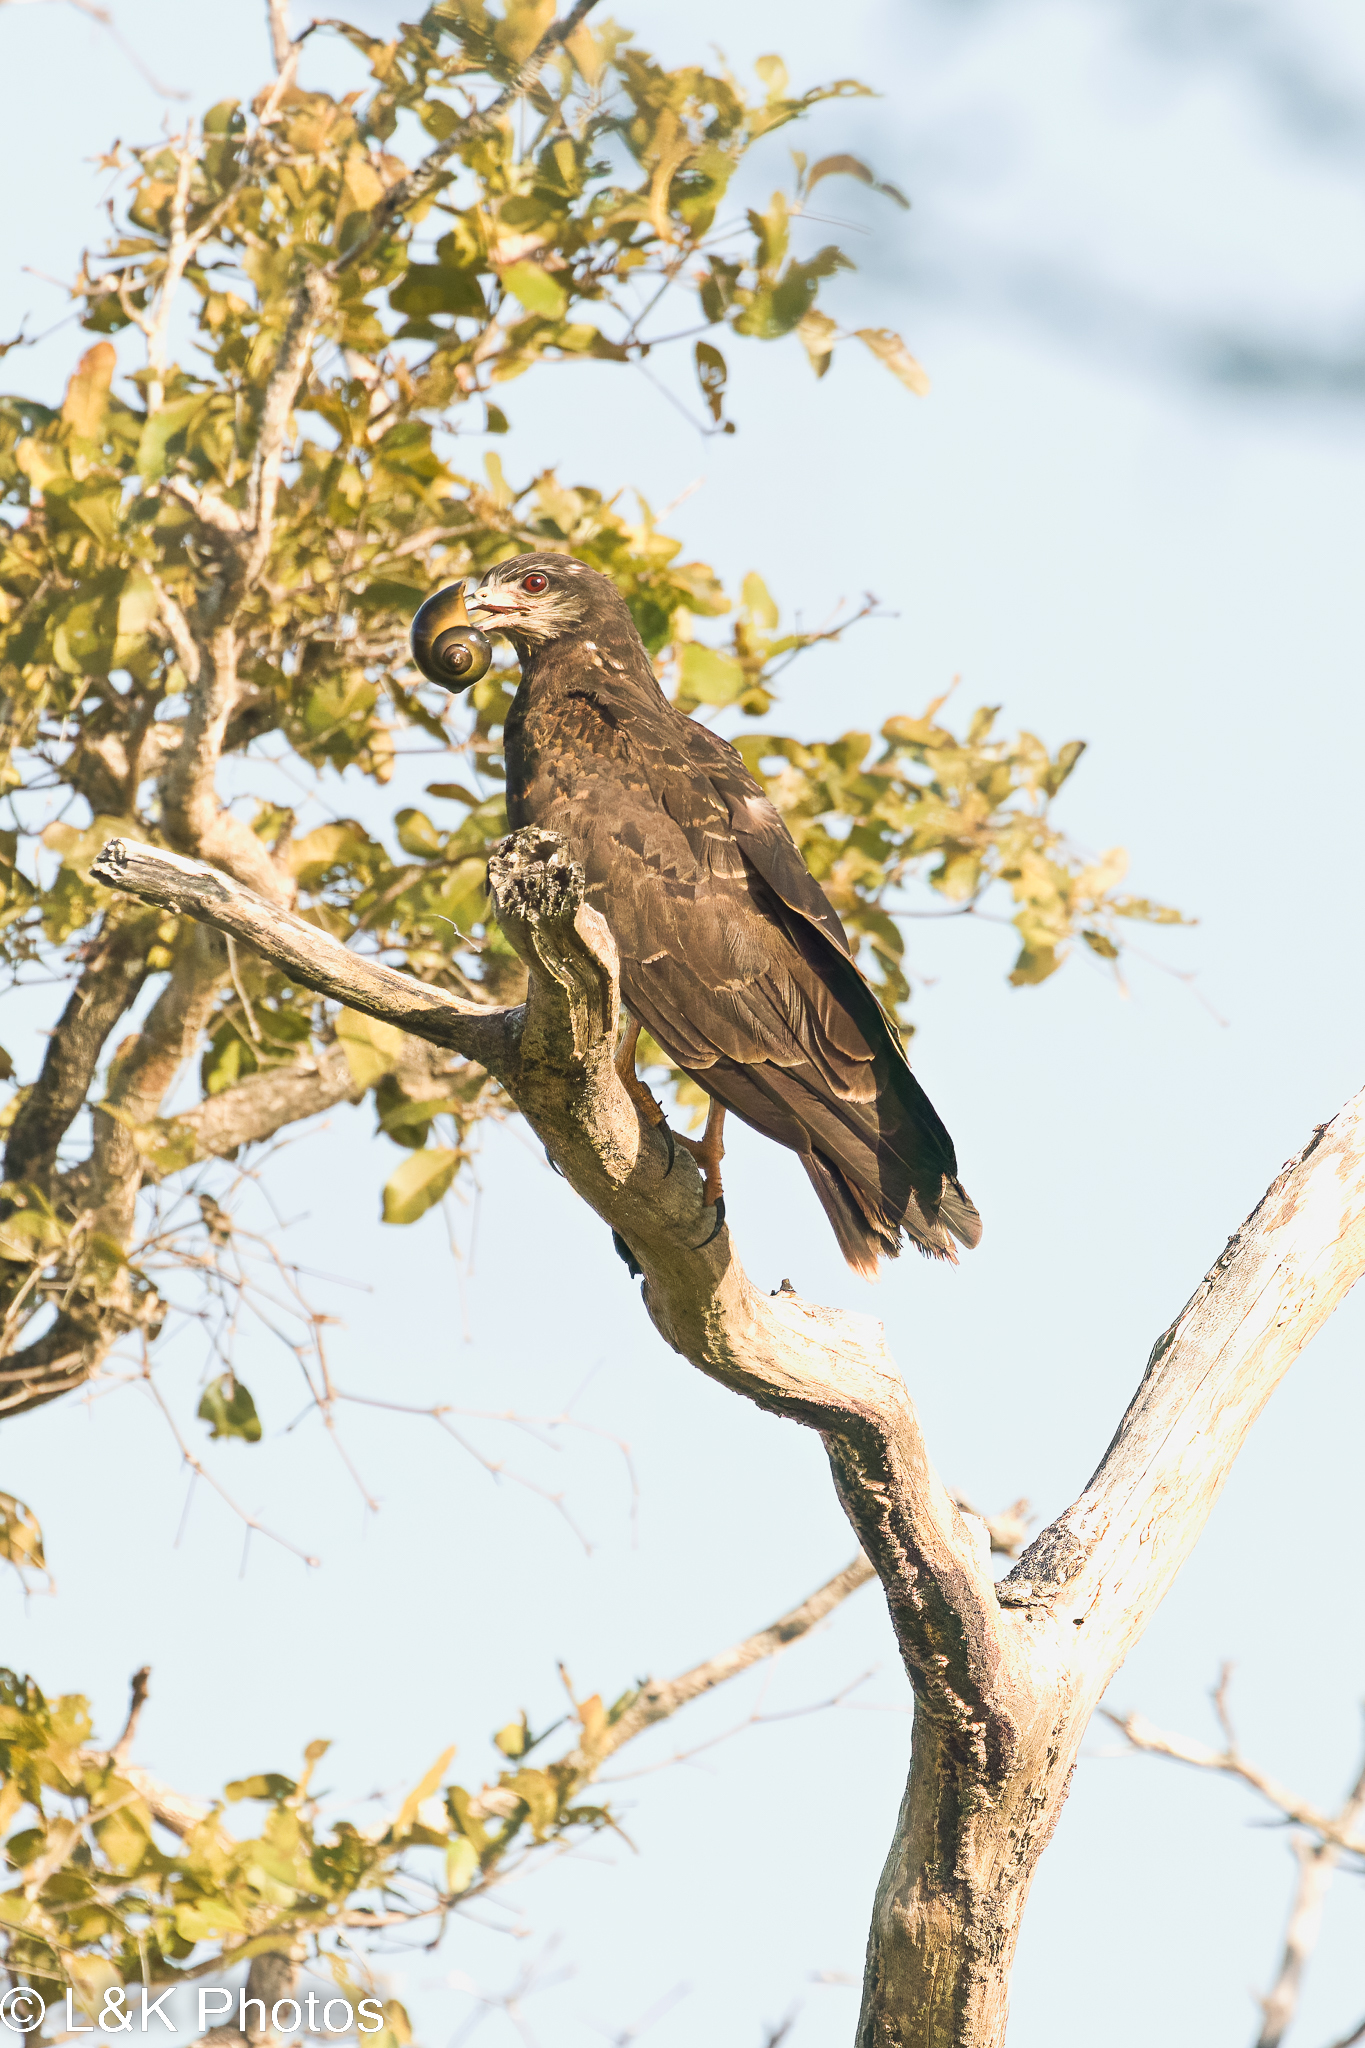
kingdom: Animalia
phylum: Chordata
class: Aves
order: Accipitriformes
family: Accipitridae
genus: Rostrhamus
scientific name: Rostrhamus sociabilis
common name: Snail kite
